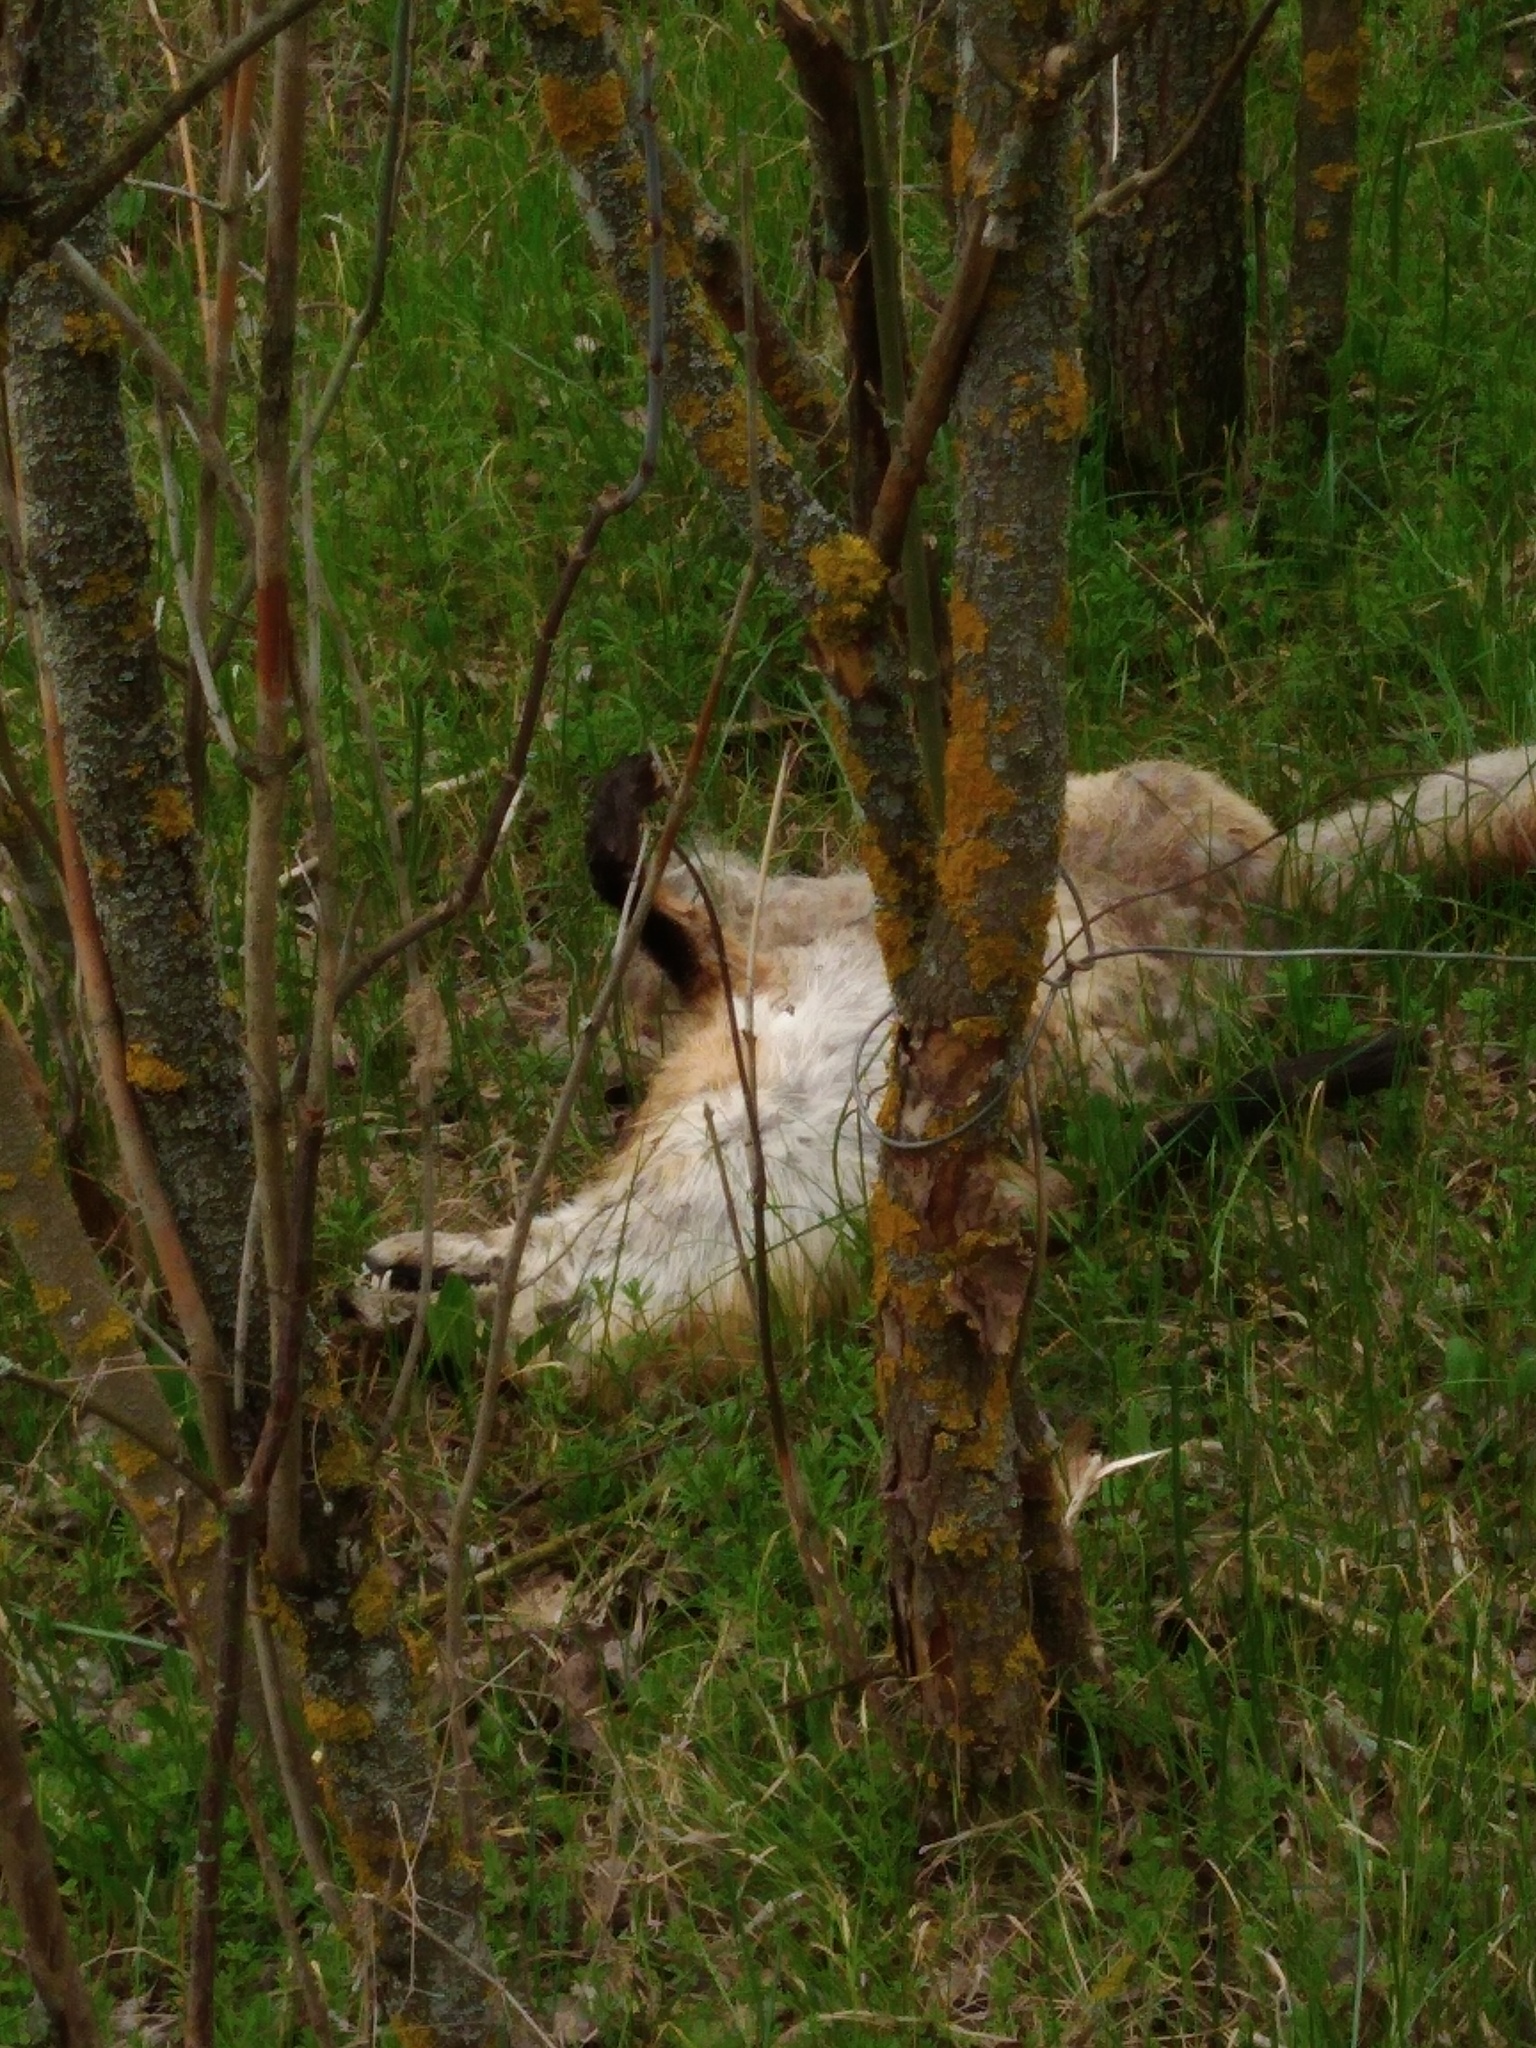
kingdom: Animalia
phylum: Chordata
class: Mammalia
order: Carnivora
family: Canidae
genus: Vulpes
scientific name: Vulpes vulpes
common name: Red fox
